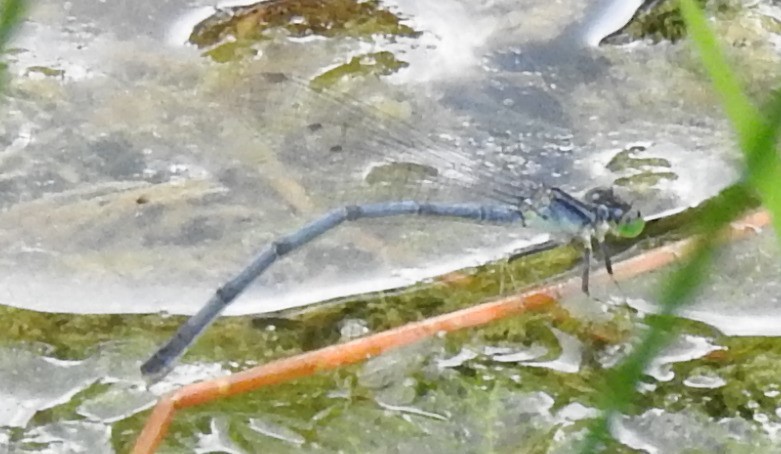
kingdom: Animalia
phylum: Arthropoda
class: Insecta
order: Odonata
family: Coenagrionidae
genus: Ischnura
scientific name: Ischnura verticalis
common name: Eastern forktail
